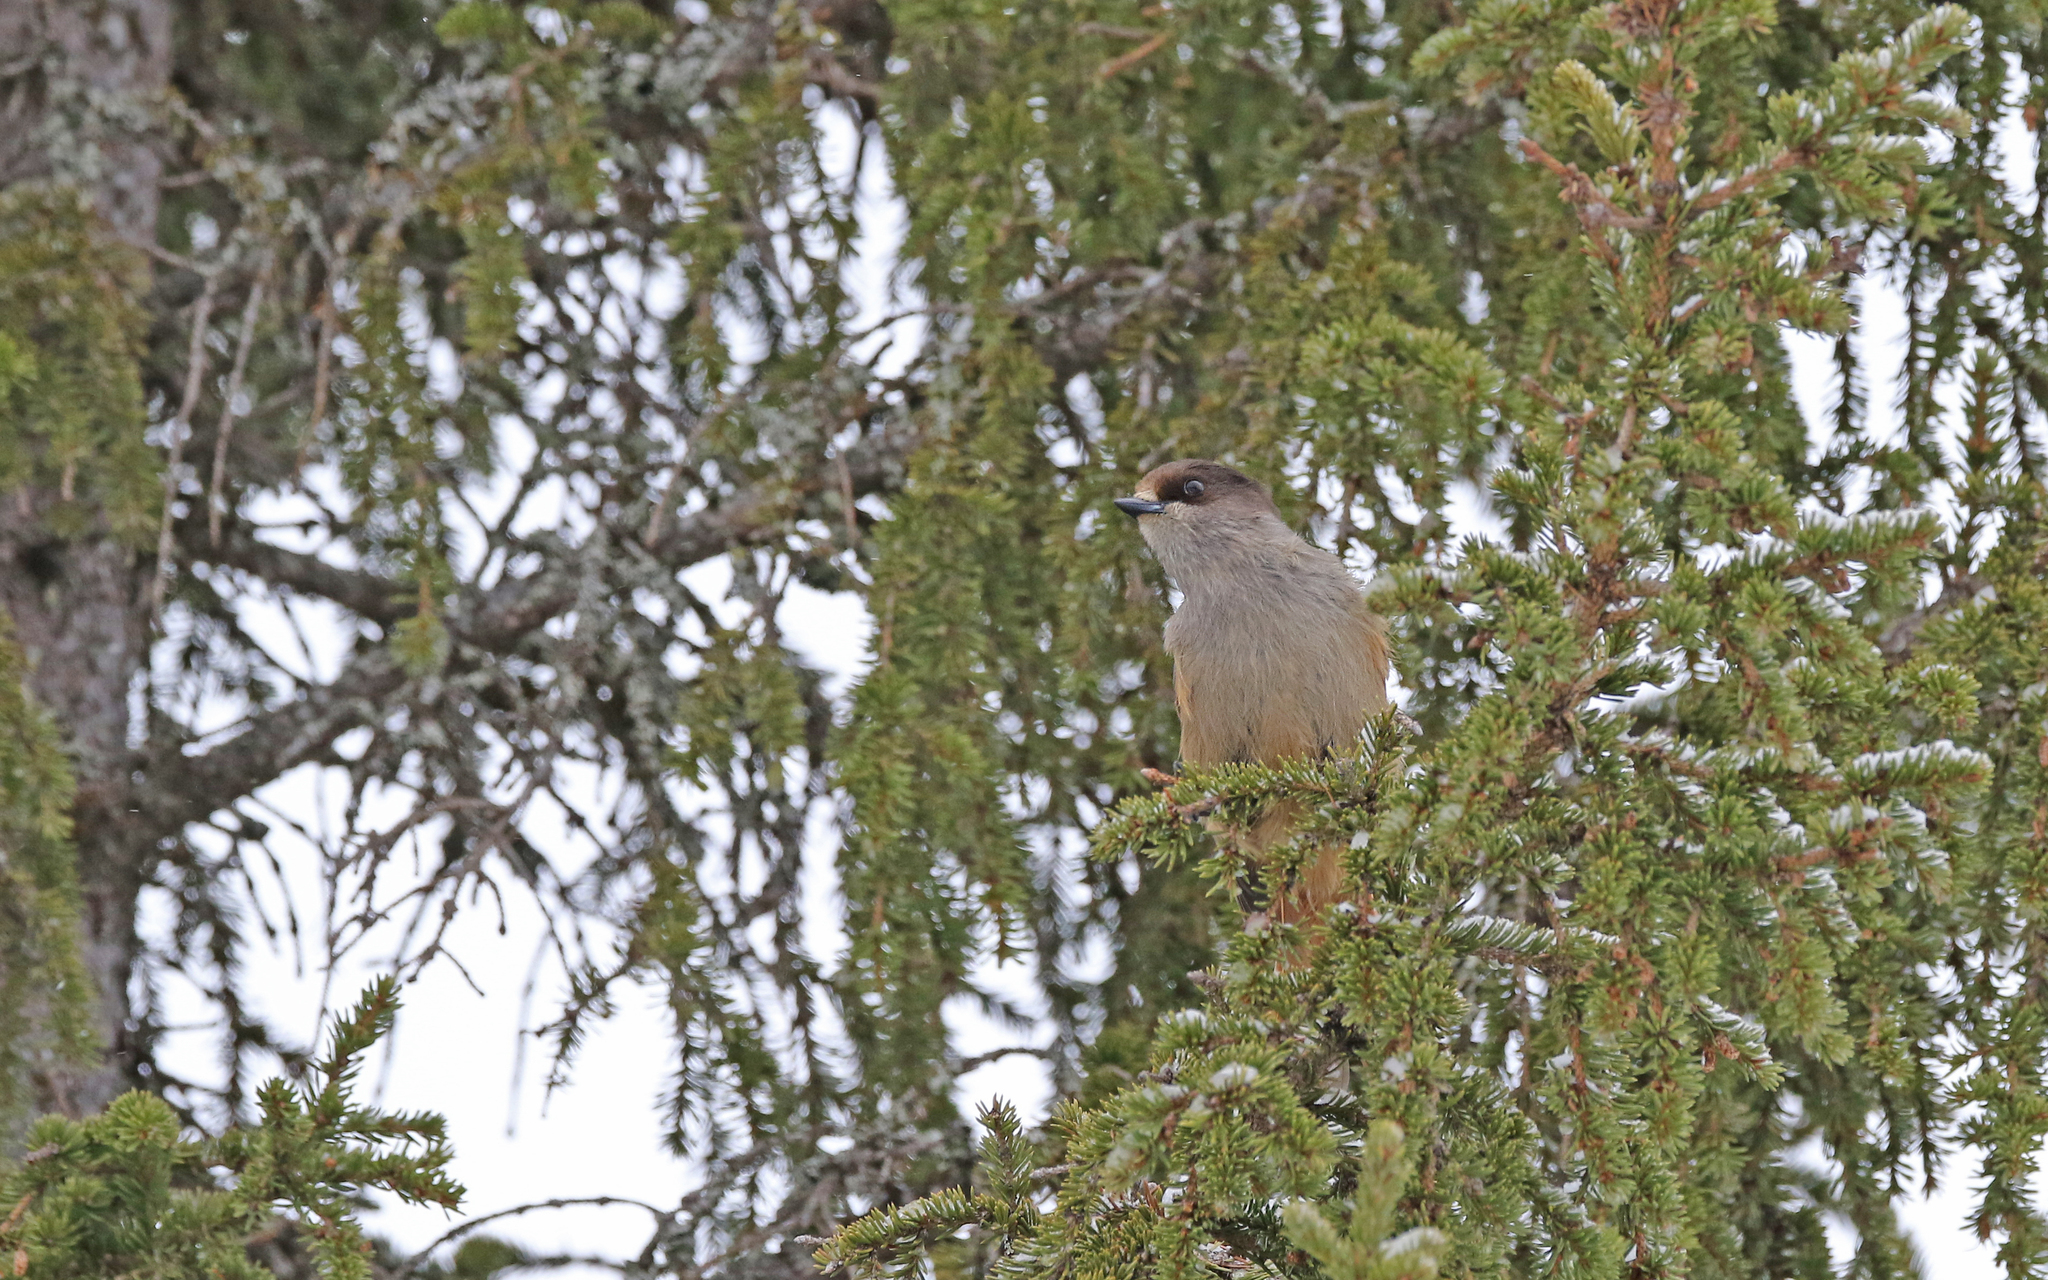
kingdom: Animalia
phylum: Chordata
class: Aves
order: Passeriformes
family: Corvidae
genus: Perisoreus
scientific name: Perisoreus infaustus
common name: Siberian jay
